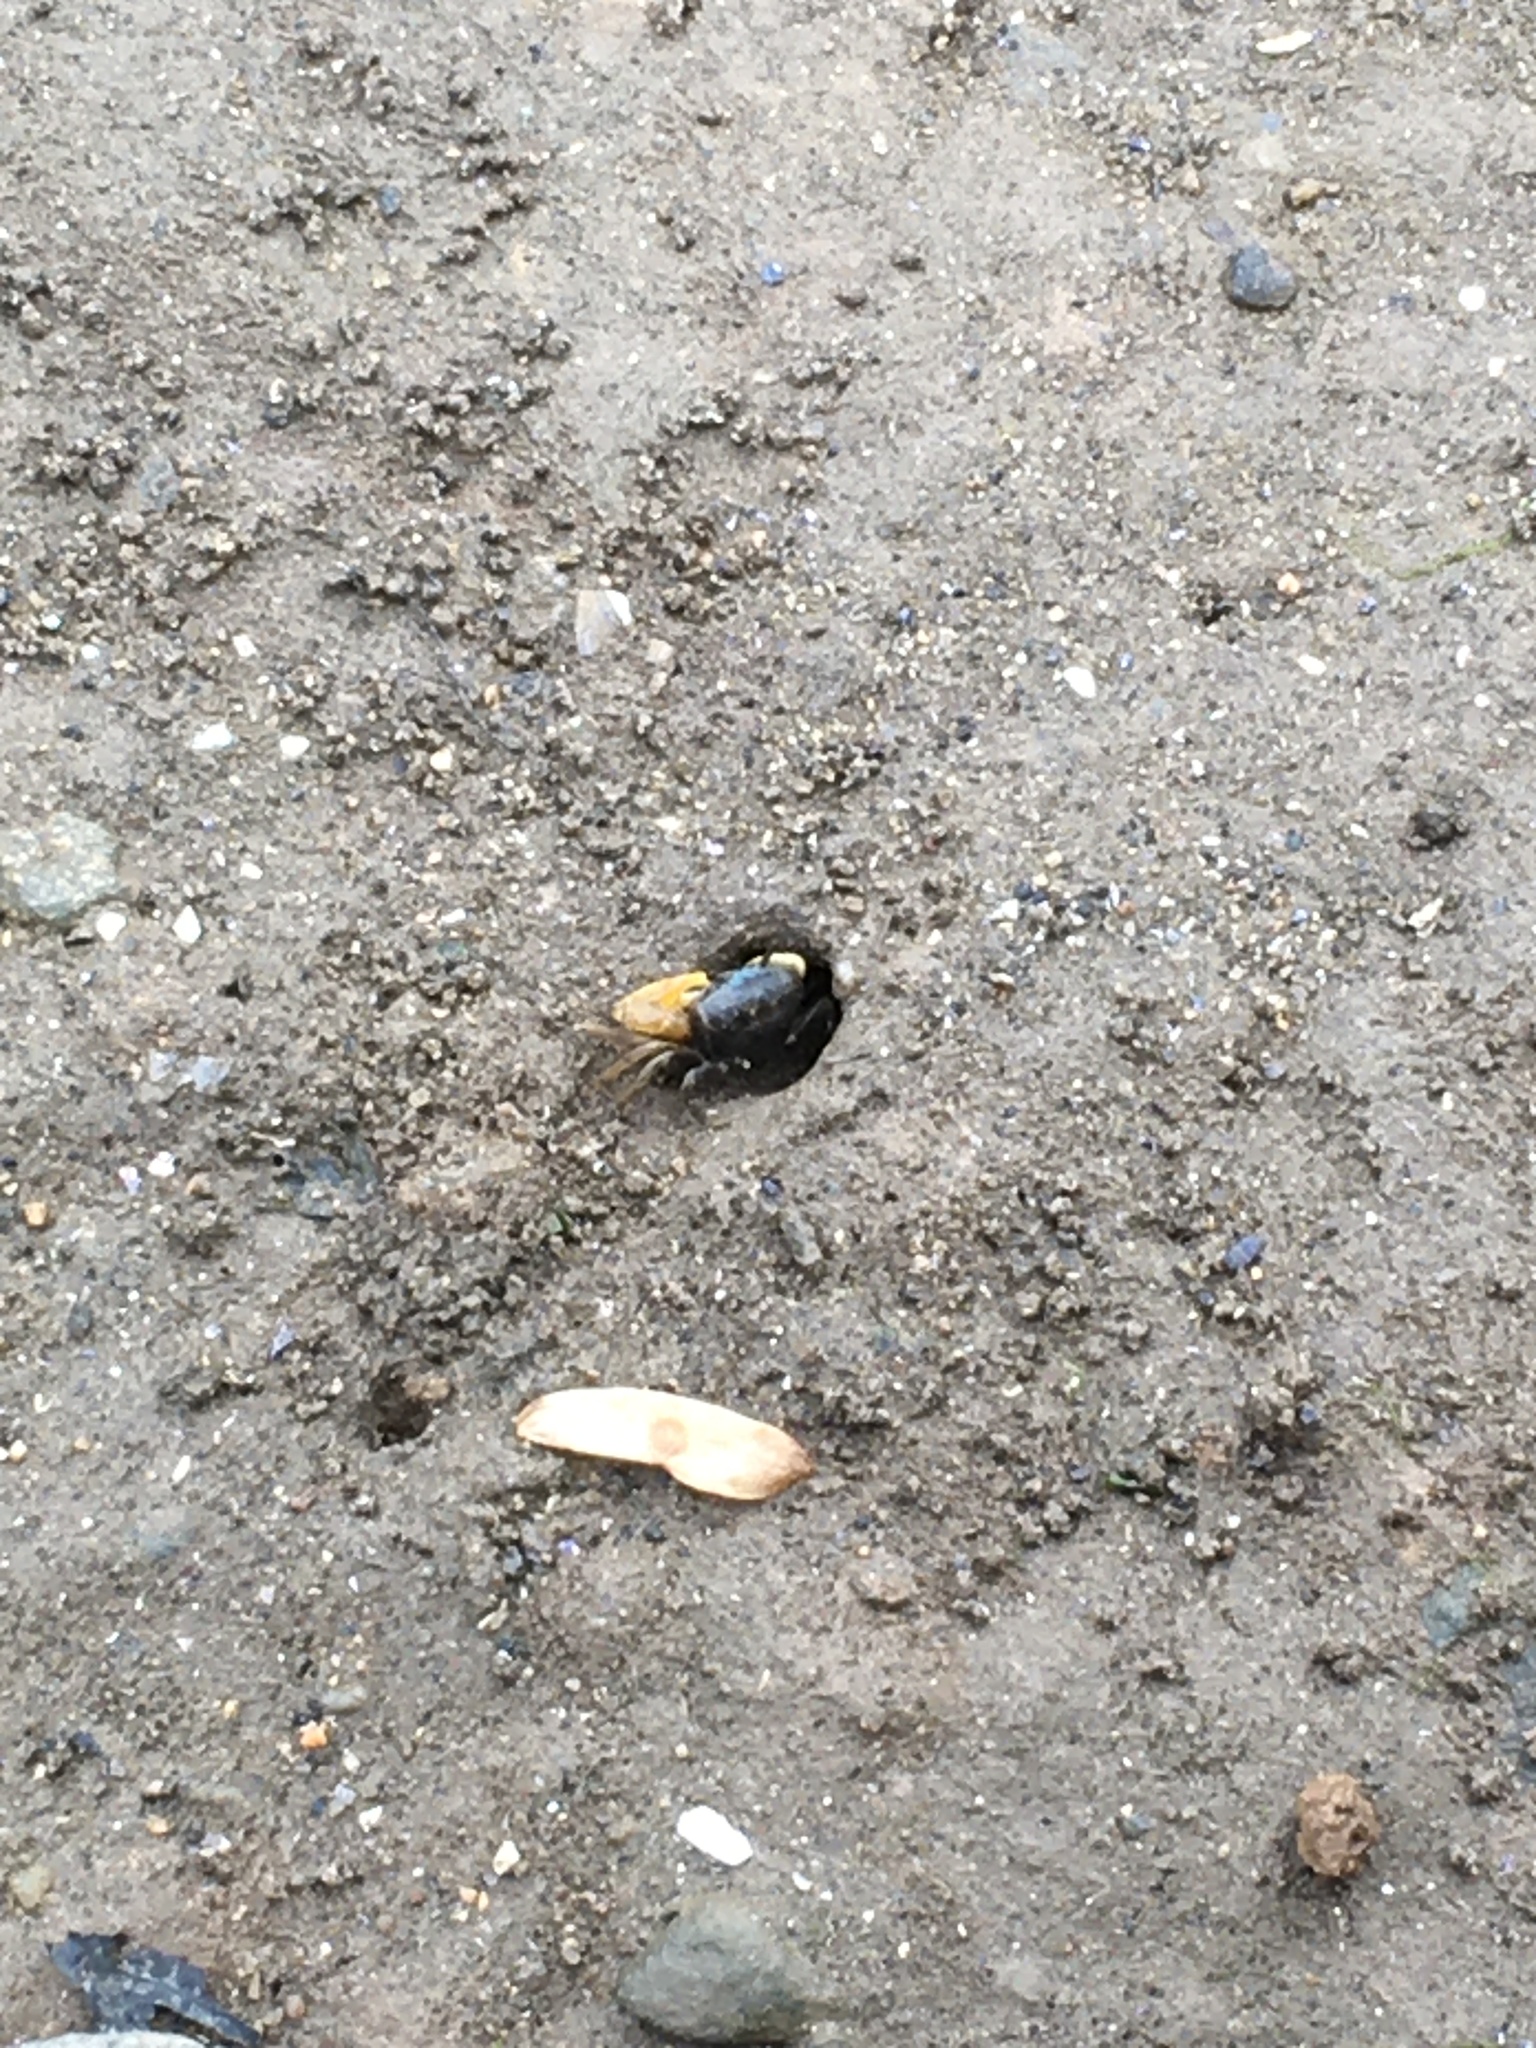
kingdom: Animalia
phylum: Arthropoda
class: Malacostraca
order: Decapoda
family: Ocypodidae
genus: Minuca
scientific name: Minuca pugnax
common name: Mud fiddler crab
